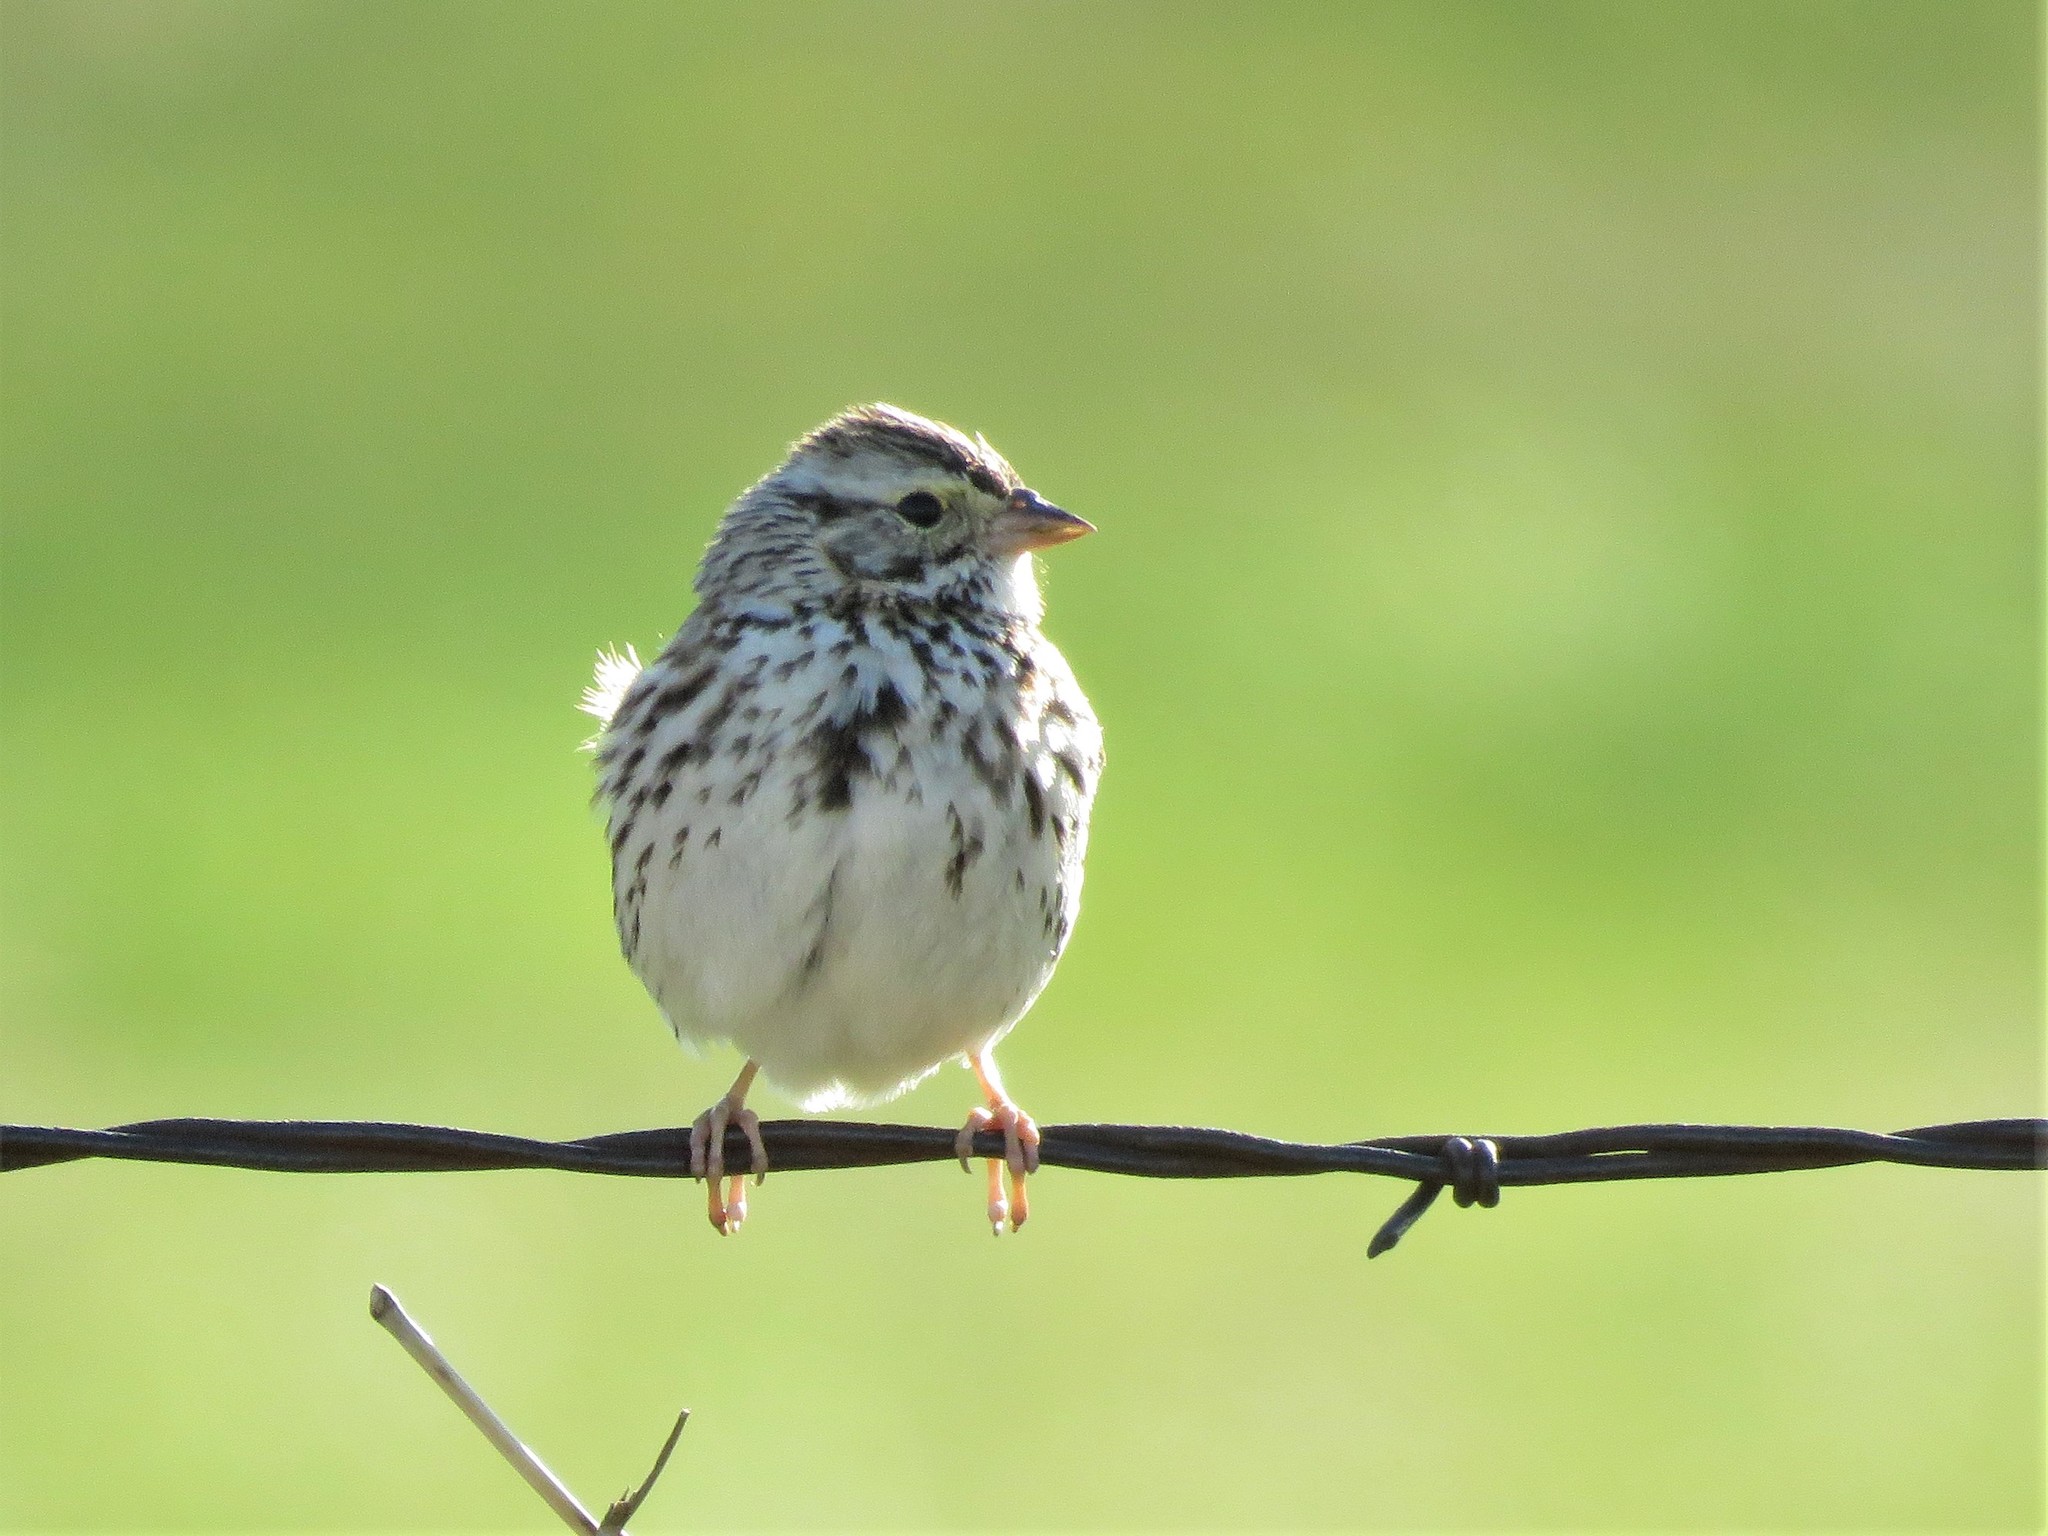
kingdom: Animalia
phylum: Chordata
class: Aves
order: Passeriformes
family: Passerellidae
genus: Passerculus
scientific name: Passerculus sandwichensis
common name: Savannah sparrow
